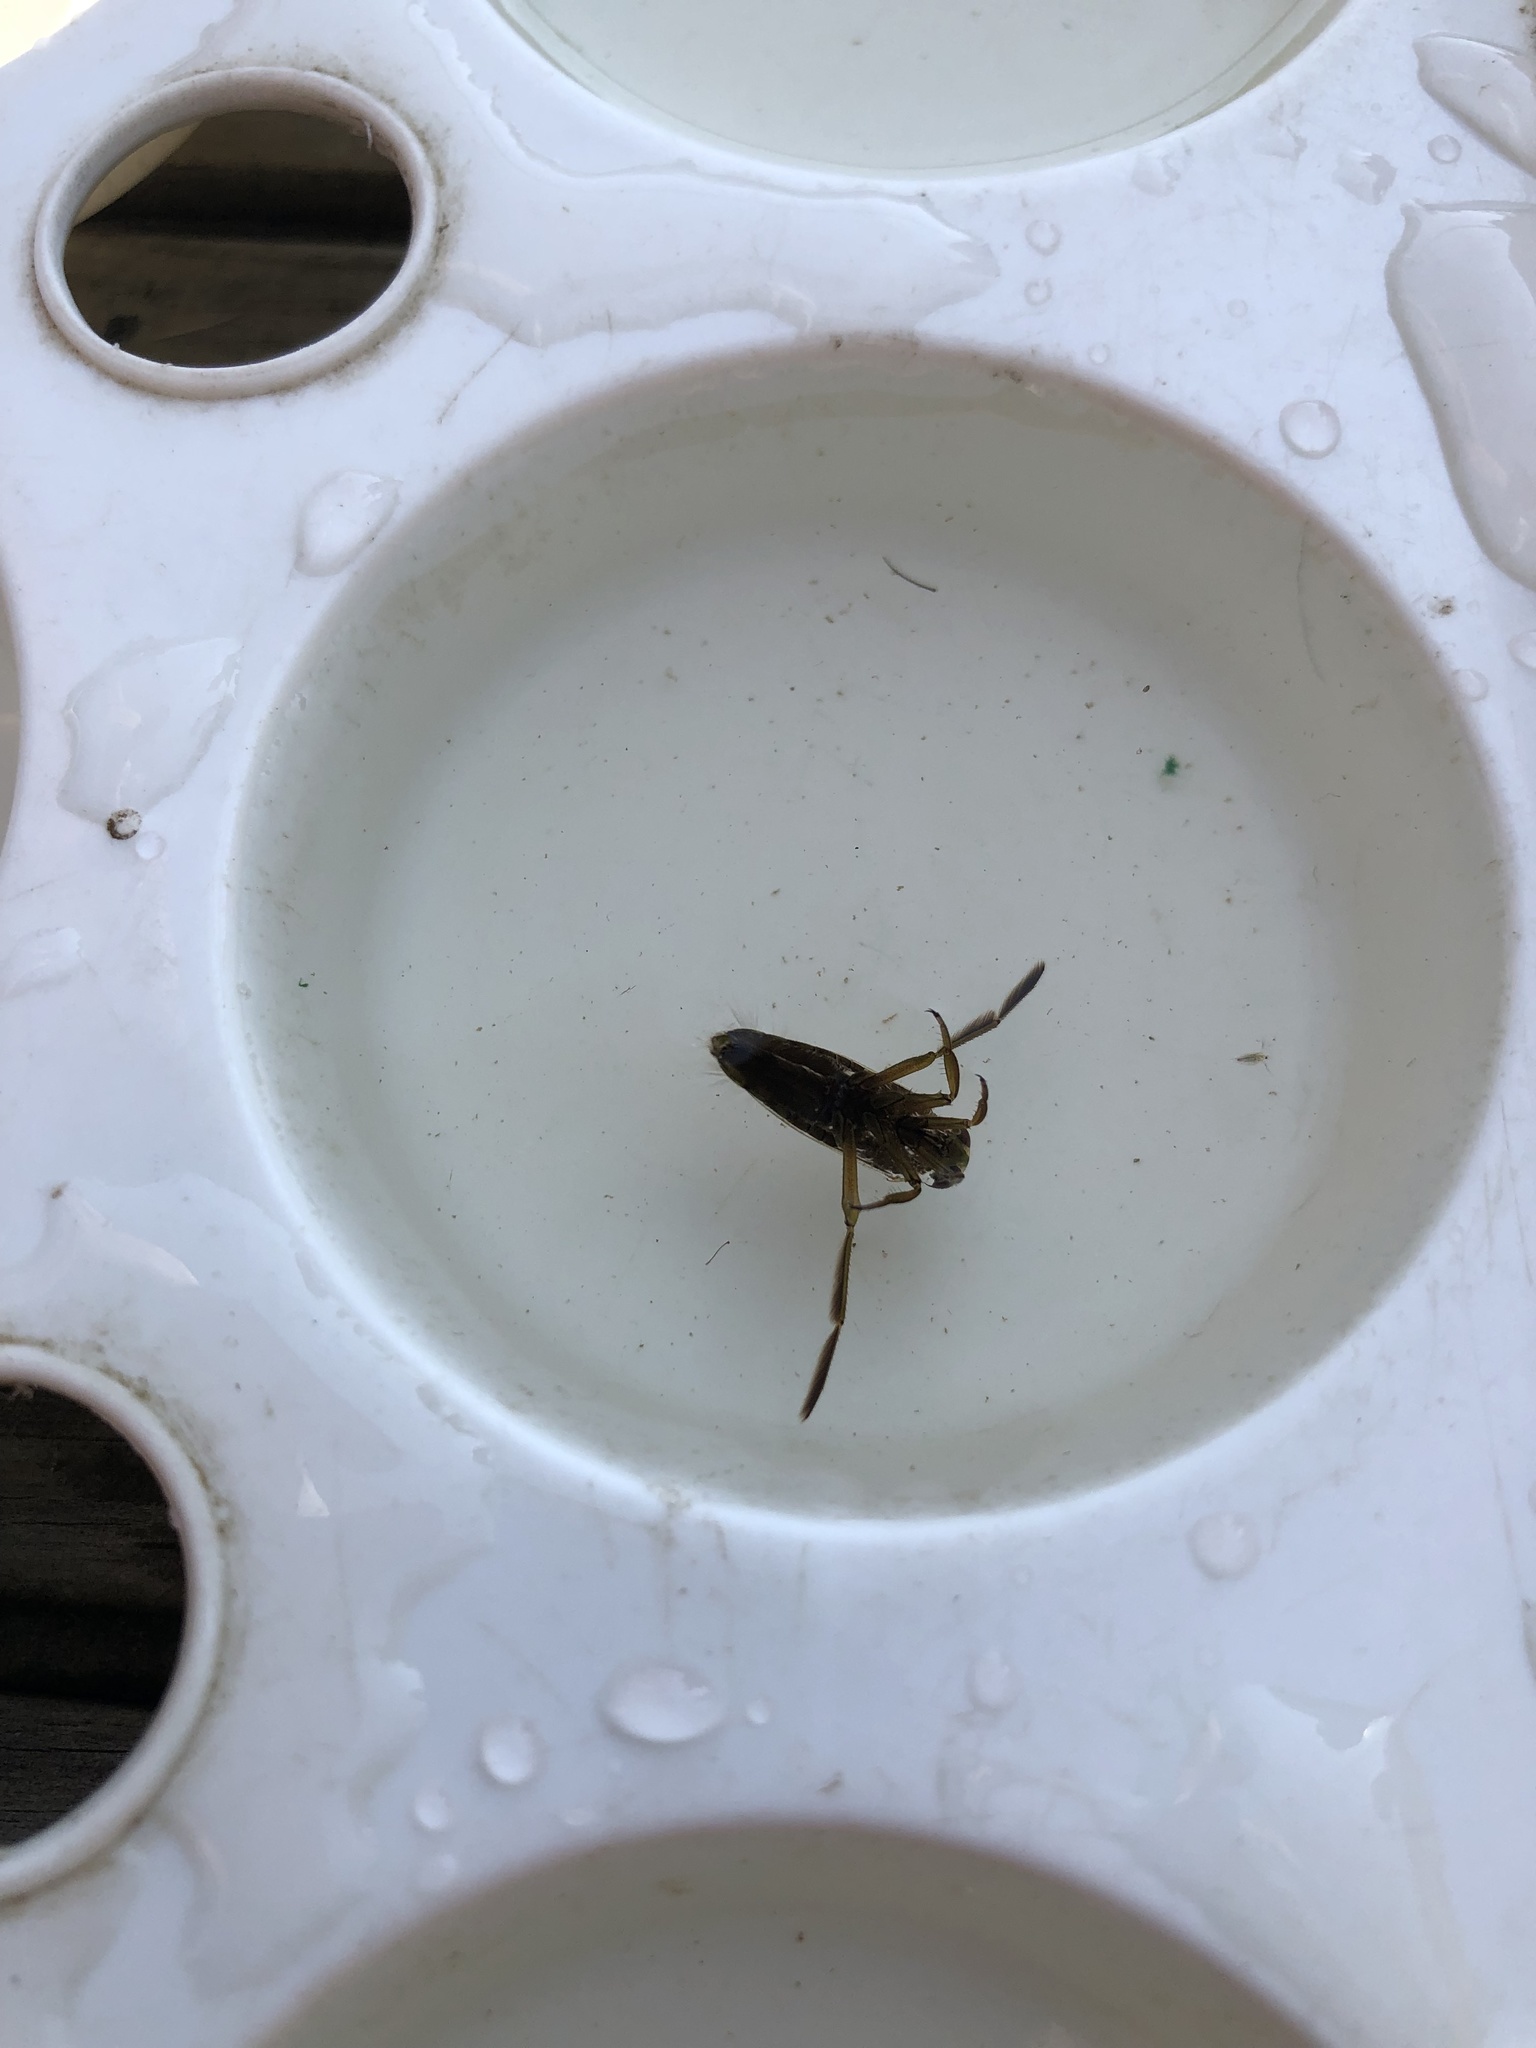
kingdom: Animalia
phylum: Arthropoda
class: Insecta
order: Hemiptera
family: Notonectidae
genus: Notonecta
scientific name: Notonecta
